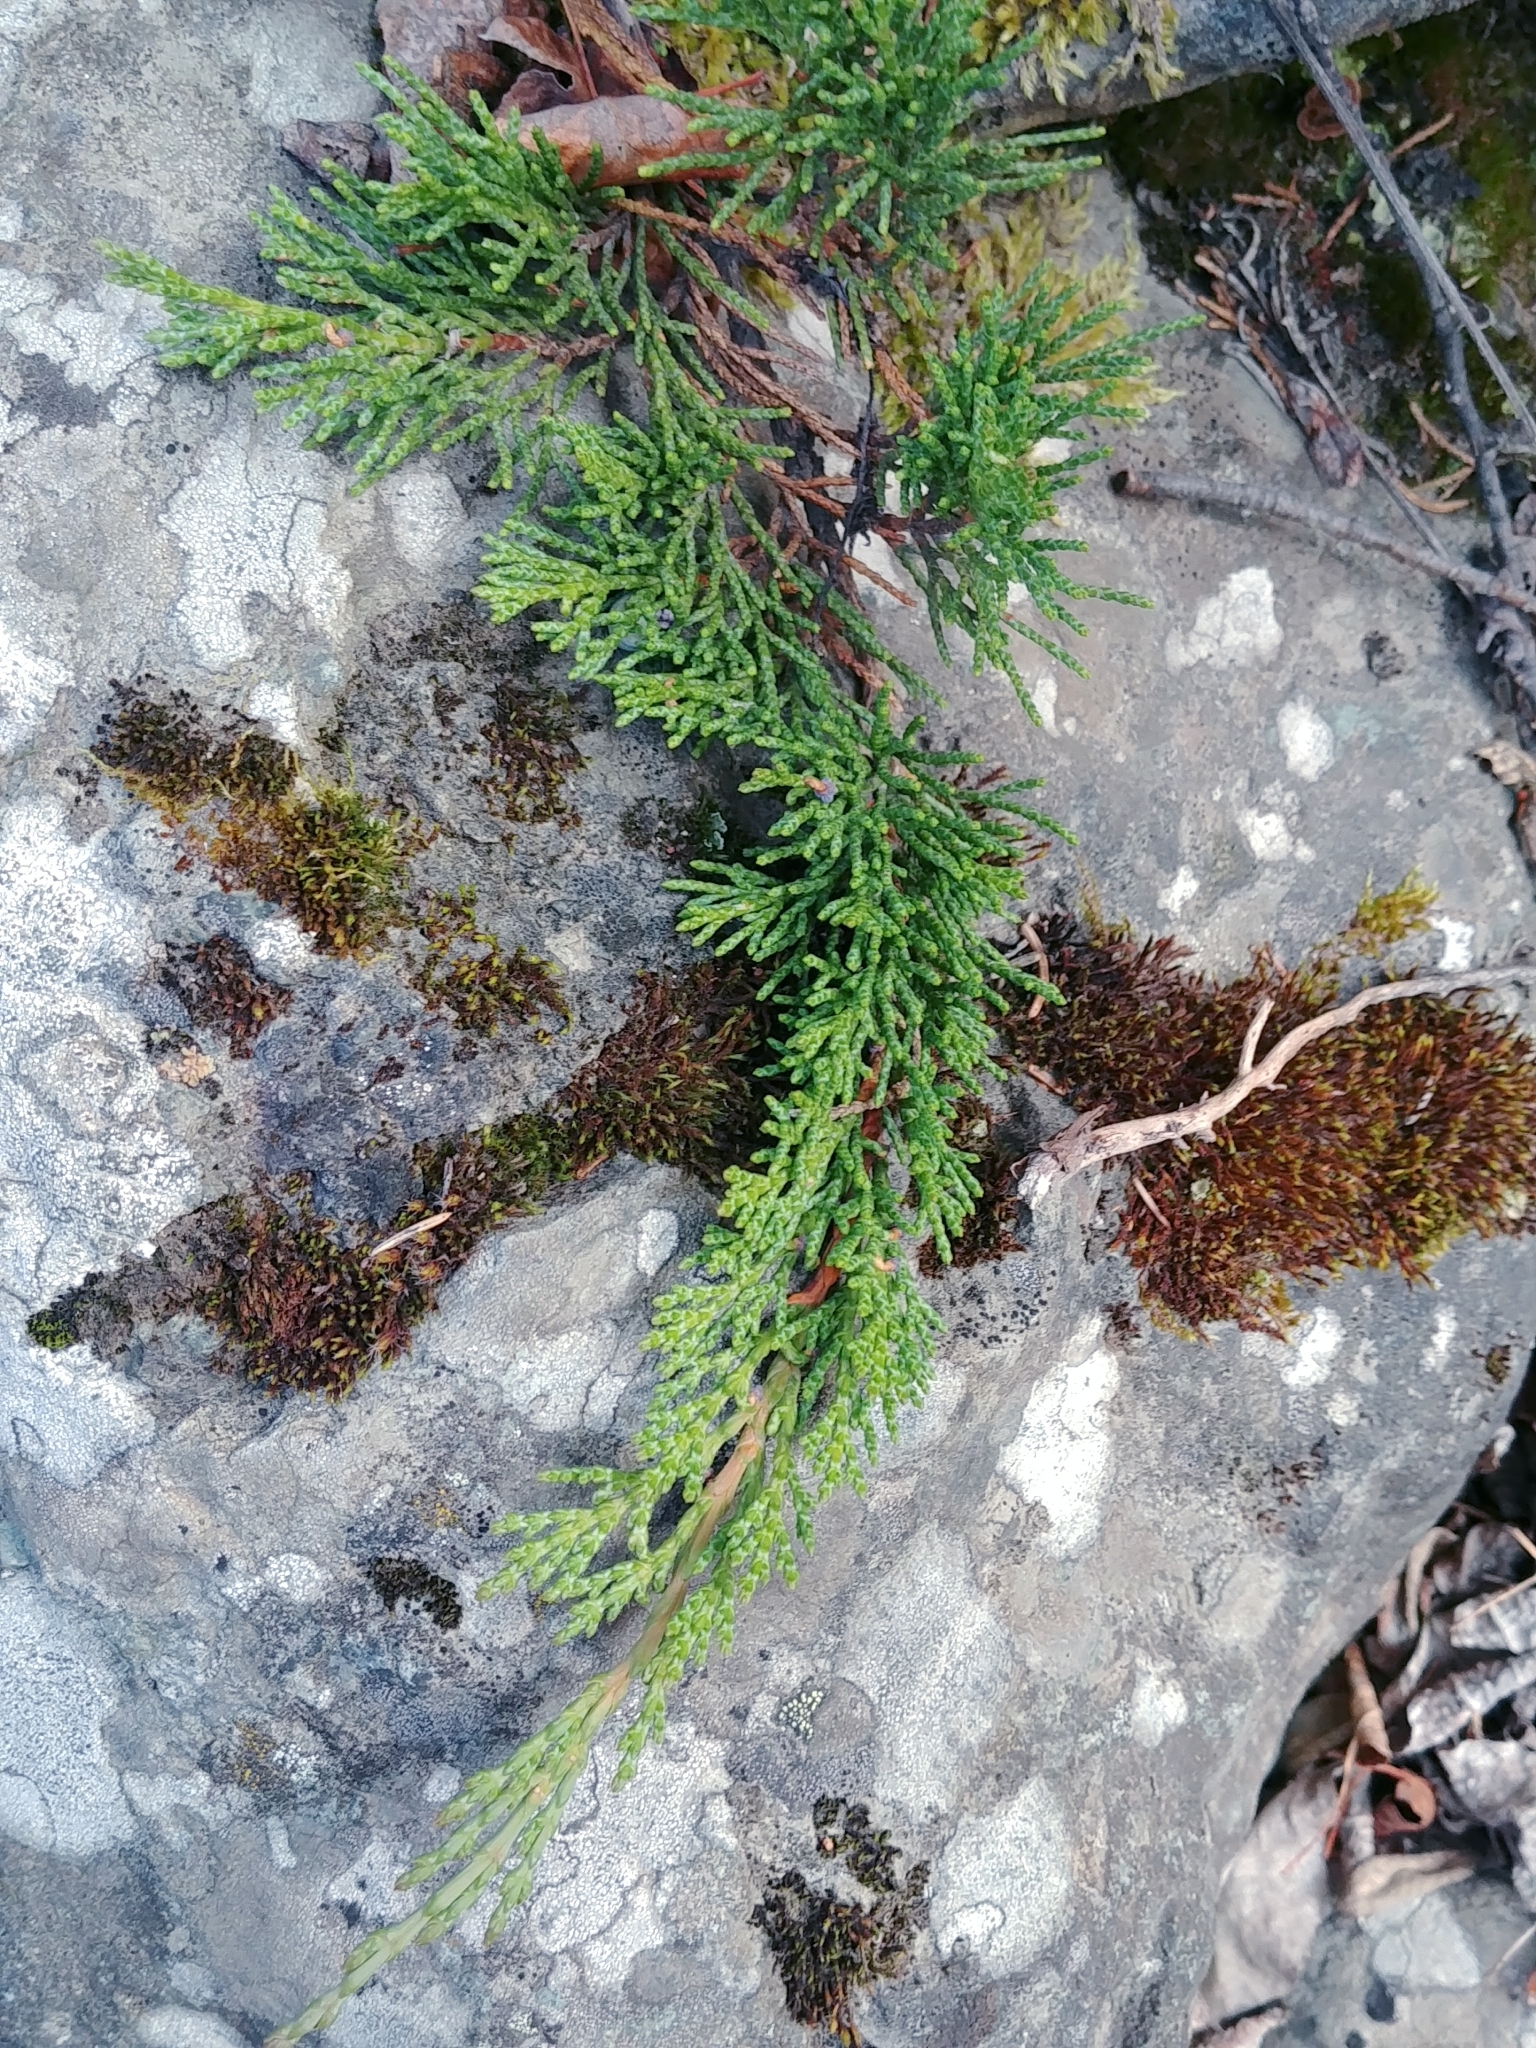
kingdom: Plantae
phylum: Tracheophyta
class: Pinopsida
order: Pinales
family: Cupressaceae
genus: Juniperus
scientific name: Juniperus horizontalis
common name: Creeping juniper
